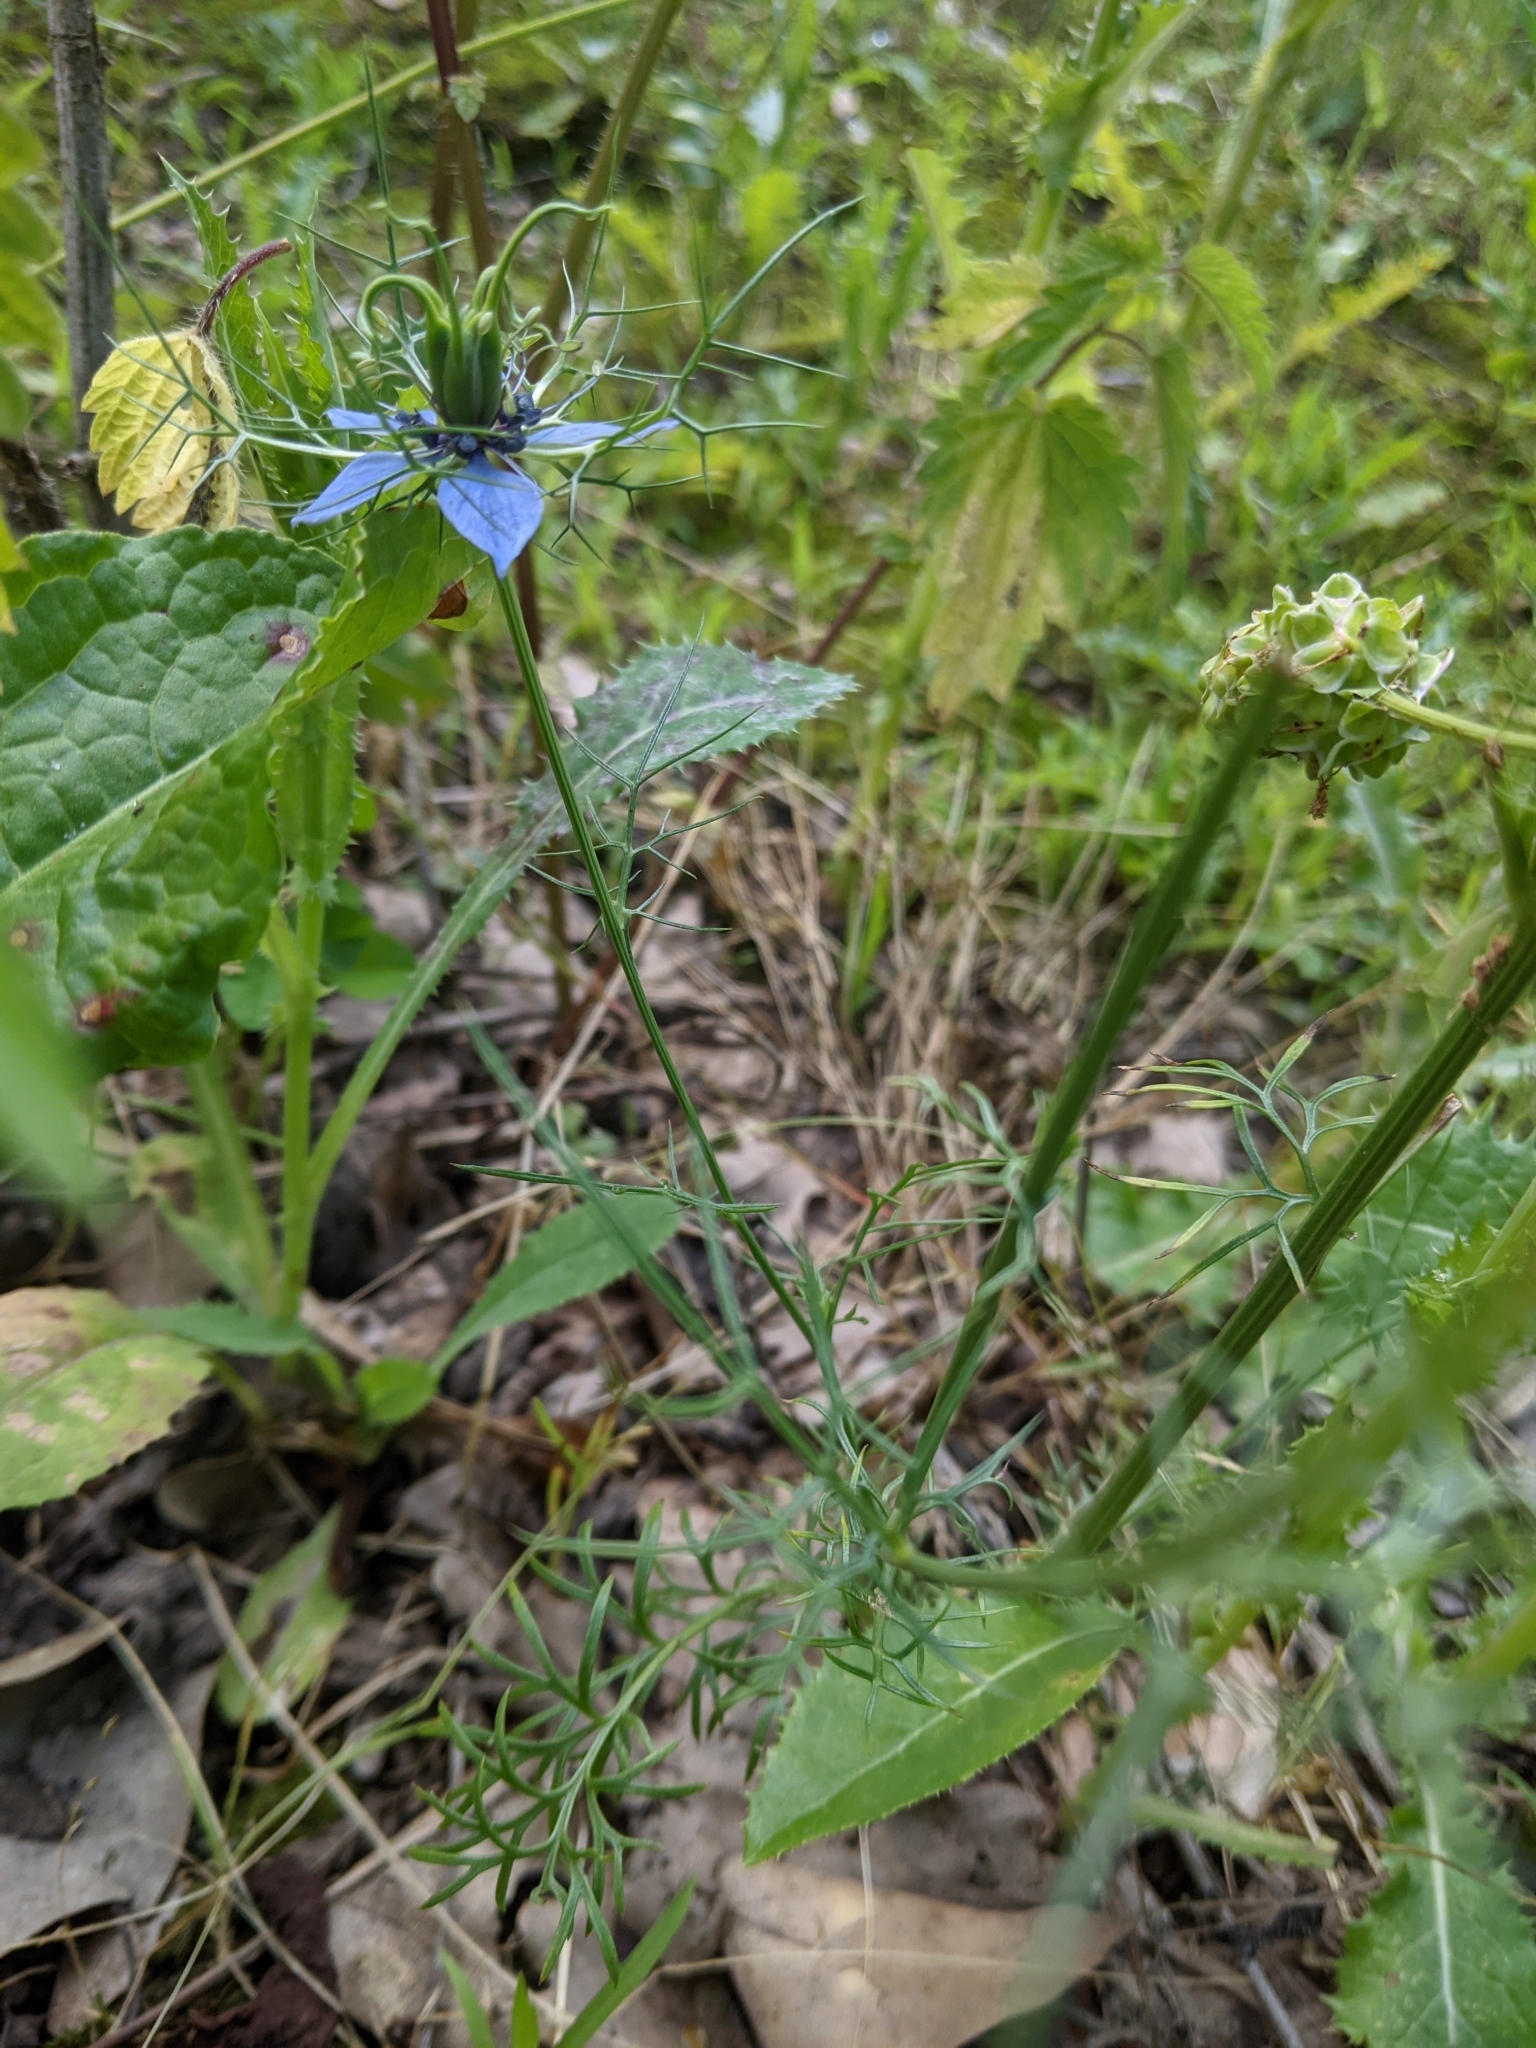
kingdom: Plantae
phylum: Tracheophyta
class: Magnoliopsida
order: Ranunculales
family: Ranunculaceae
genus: Nigella
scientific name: Nigella damascena
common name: Love-in-a-mist
